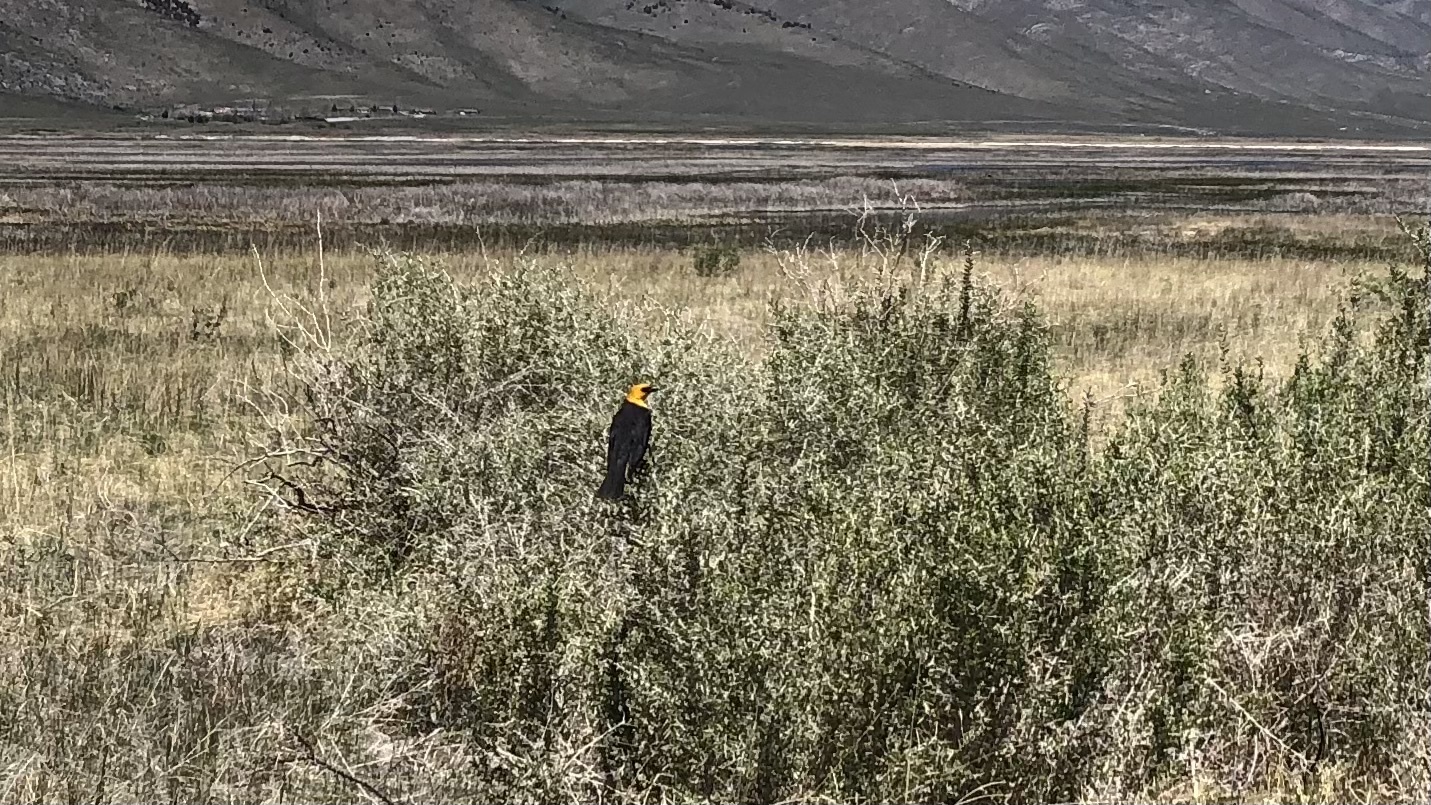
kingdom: Animalia
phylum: Chordata
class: Aves
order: Passeriformes
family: Icteridae
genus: Xanthocephalus
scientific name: Xanthocephalus xanthocephalus
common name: Yellow-headed blackbird
